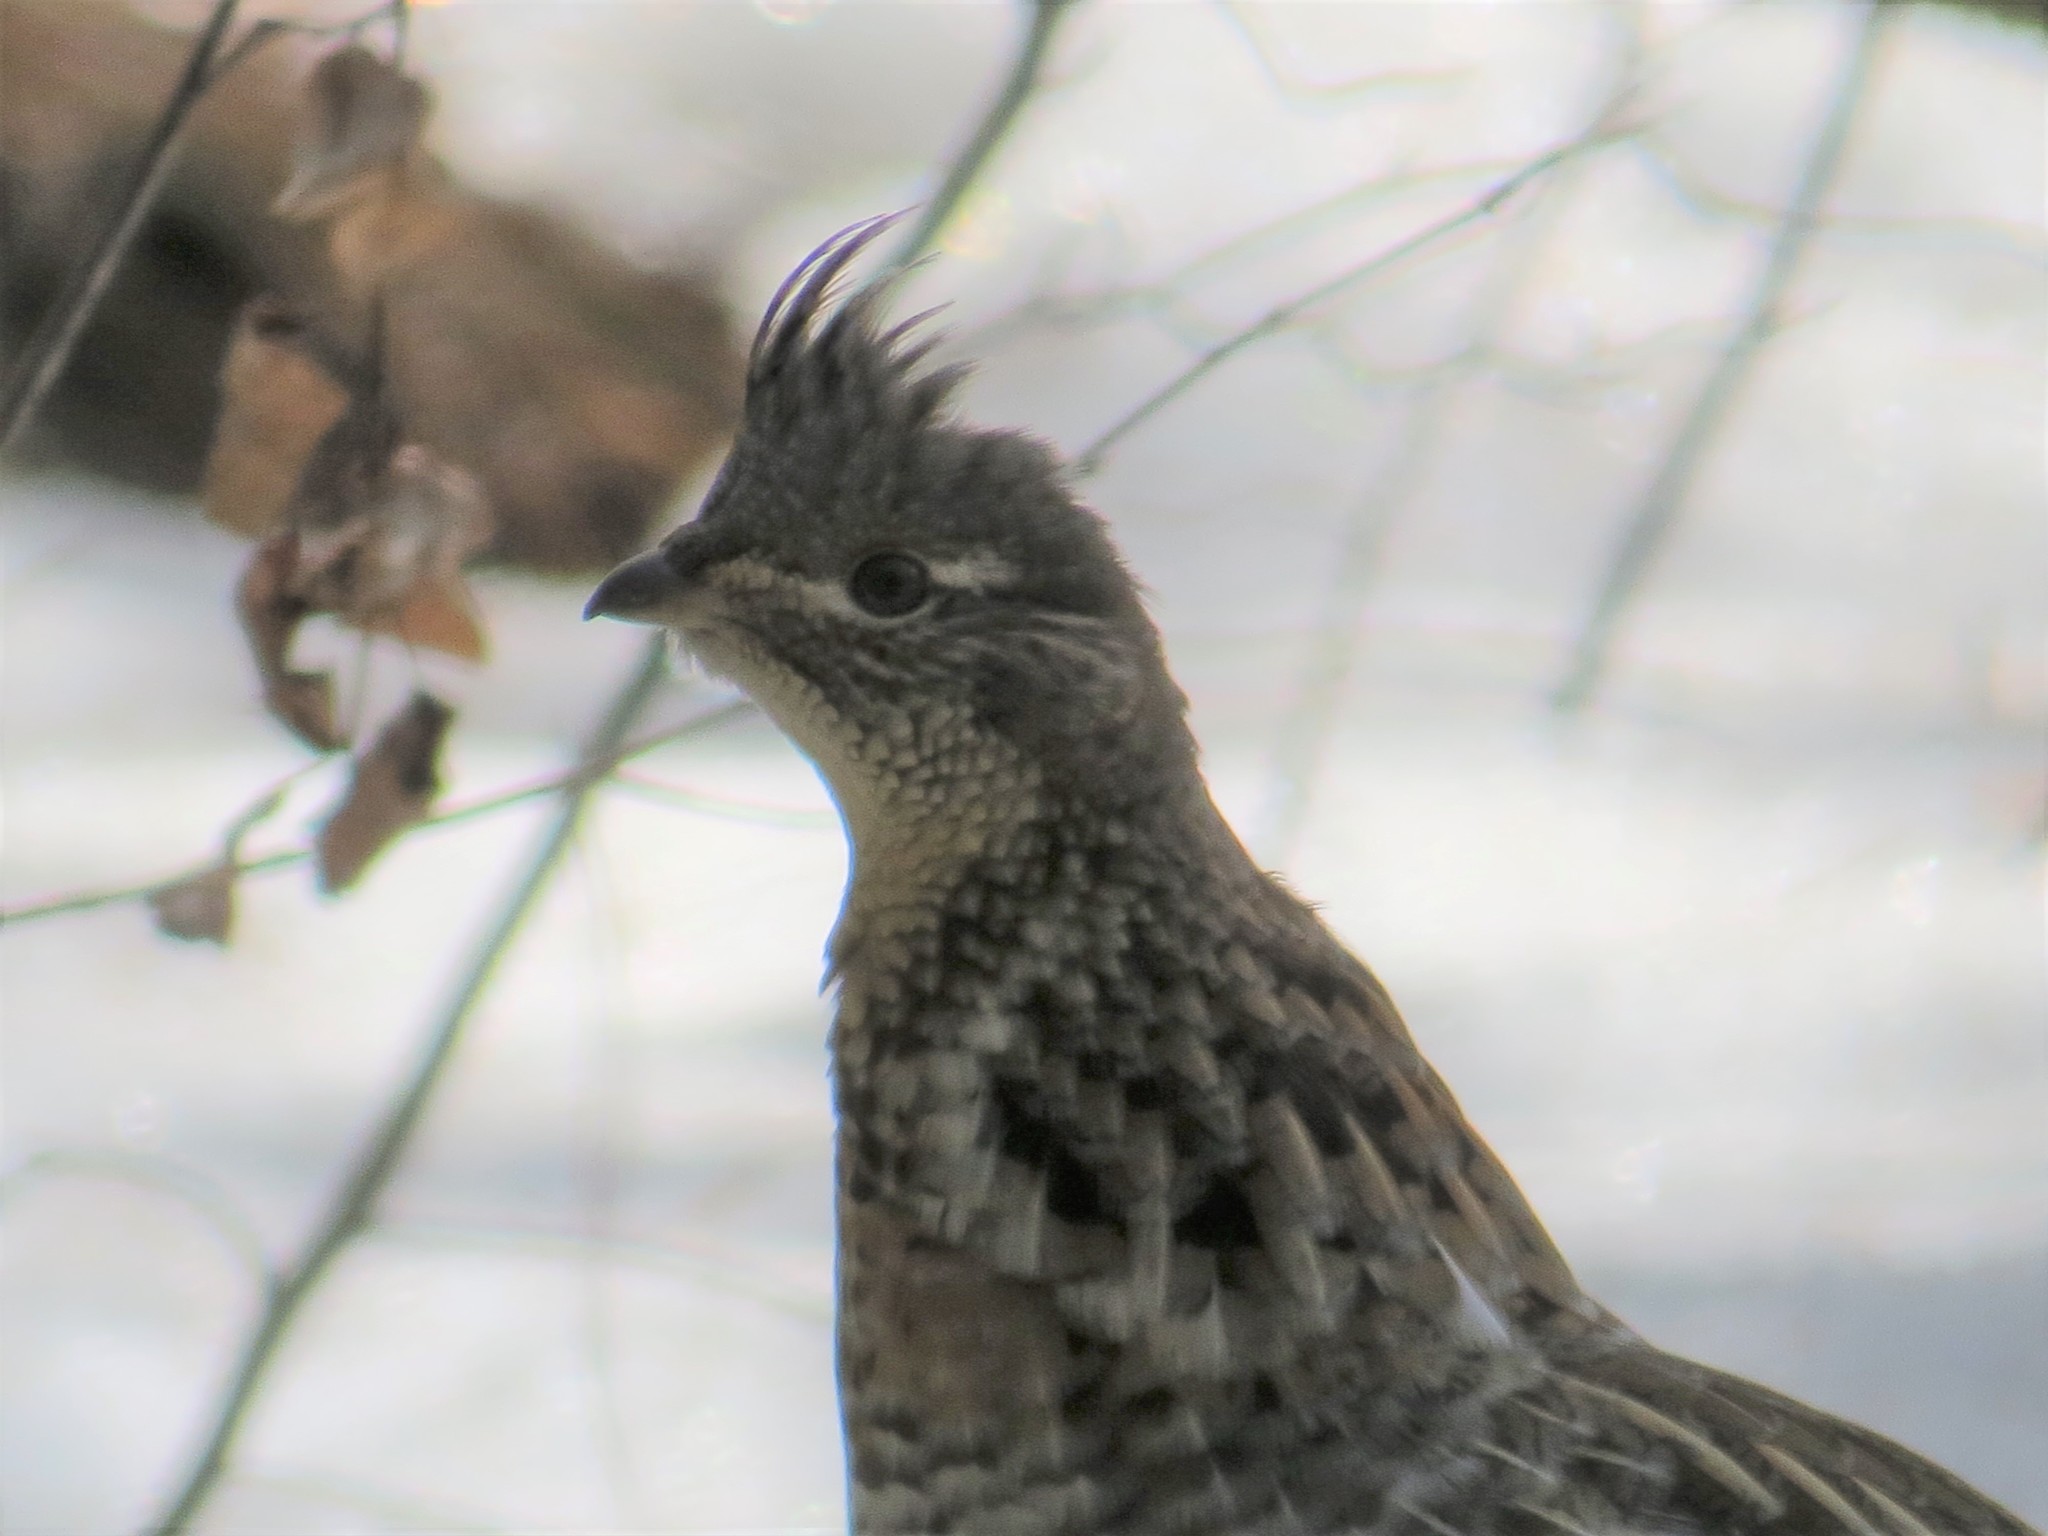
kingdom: Animalia
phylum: Chordata
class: Aves
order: Galliformes
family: Phasianidae
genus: Bonasa
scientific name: Bonasa umbellus
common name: Ruffed grouse
